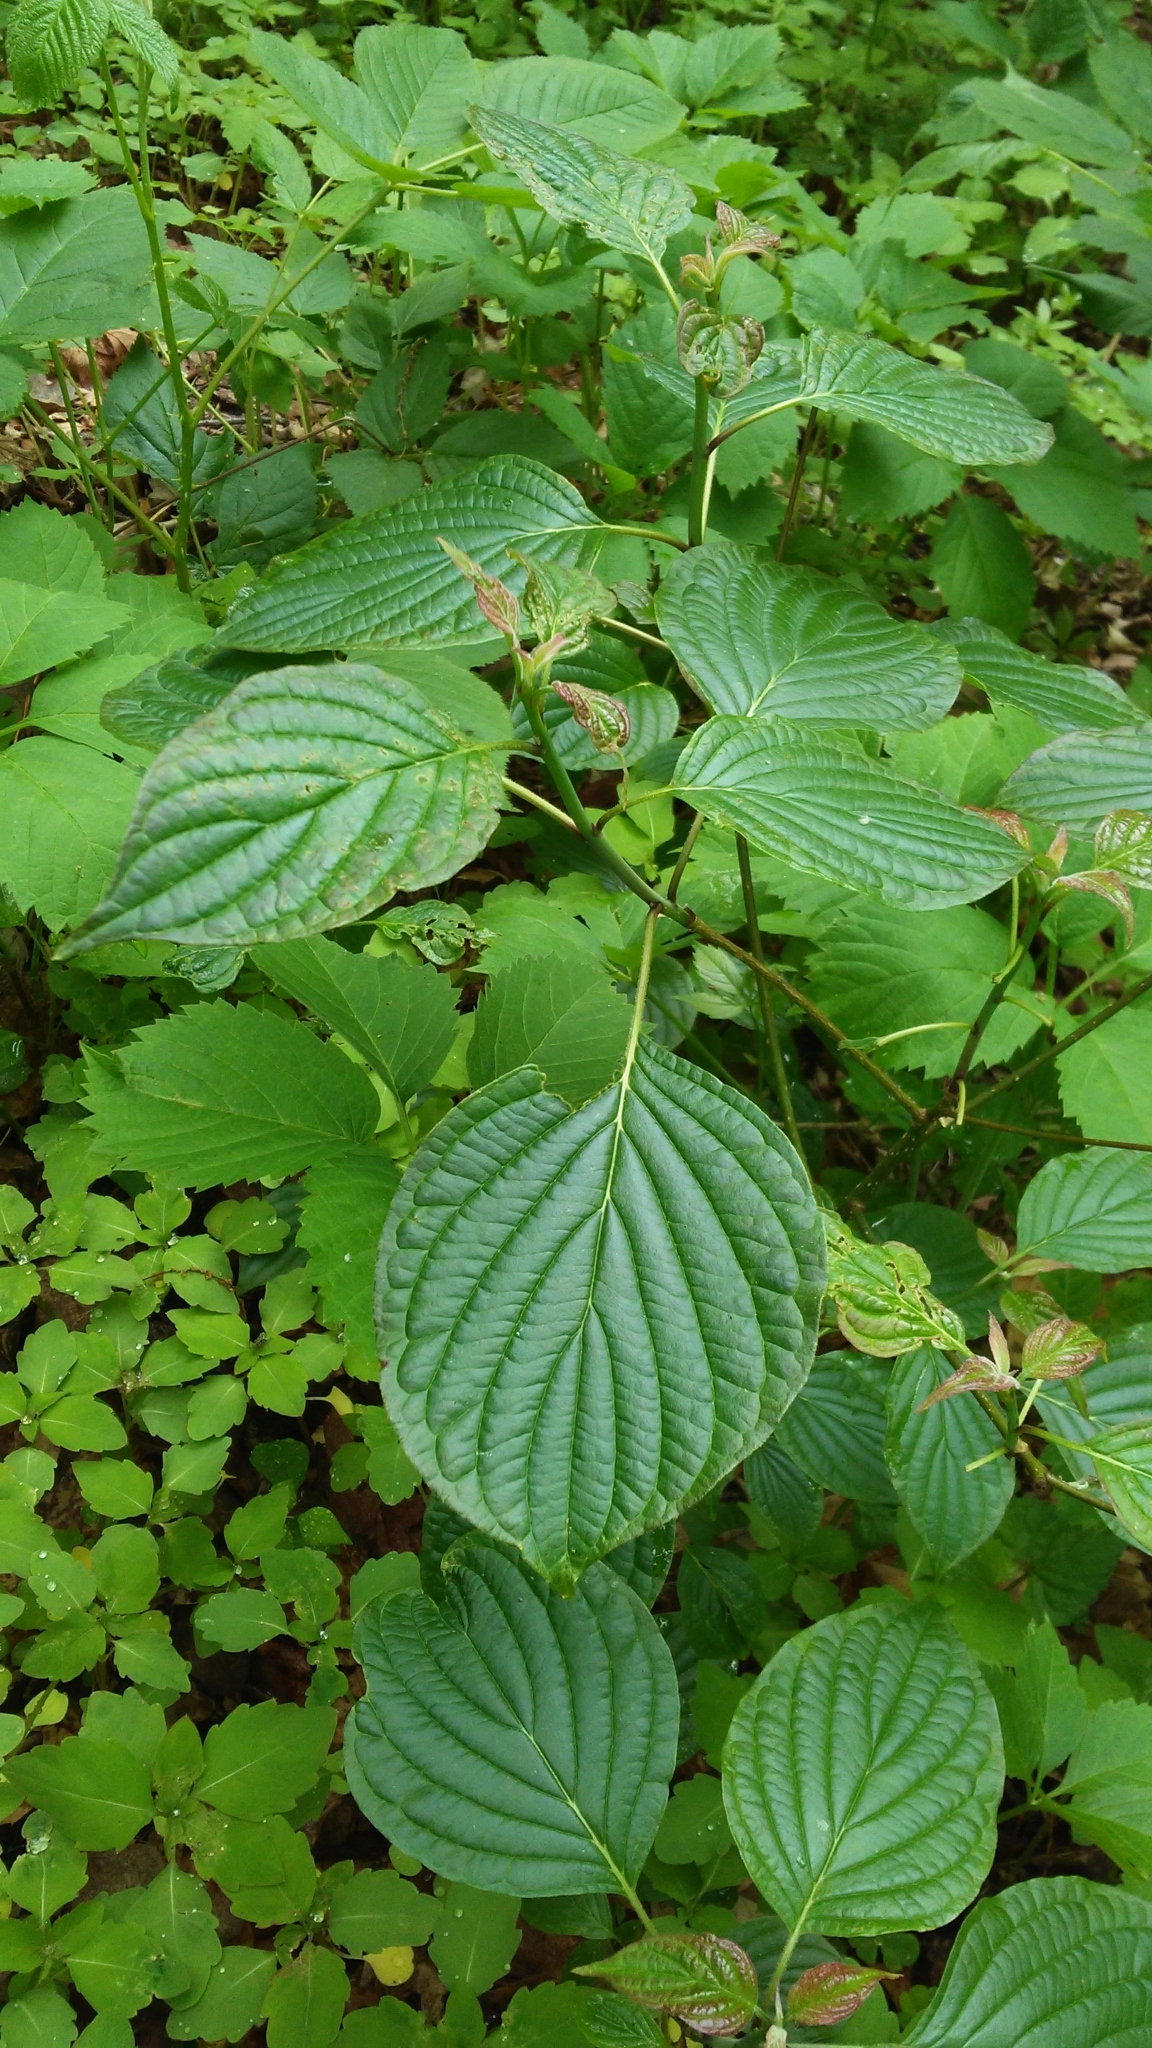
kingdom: Plantae
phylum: Tracheophyta
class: Magnoliopsida
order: Cornales
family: Cornaceae
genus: Cornus
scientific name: Cornus alternifolia
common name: Pagoda dogwood
